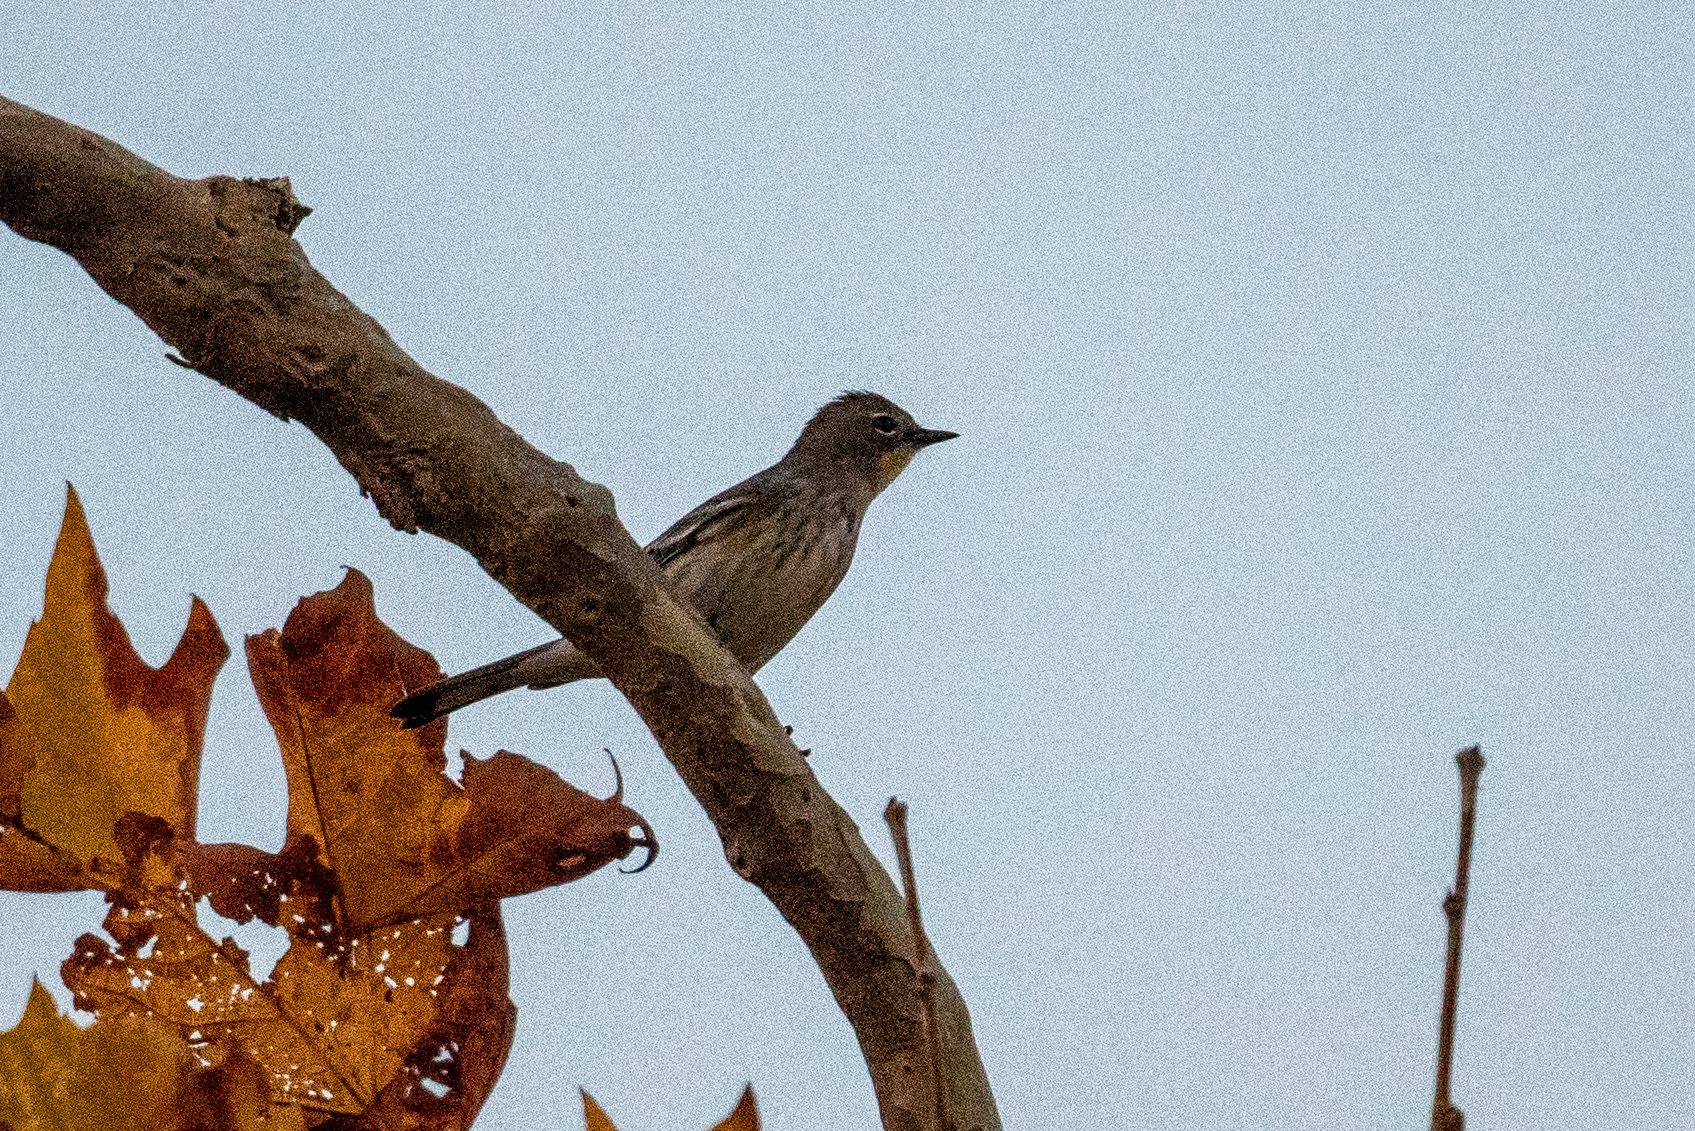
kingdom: Animalia
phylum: Chordata
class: Aves
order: Passeriformes
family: Parulidae
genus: Setophaga
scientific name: Setophaga coronata
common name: Myrtle warbler
